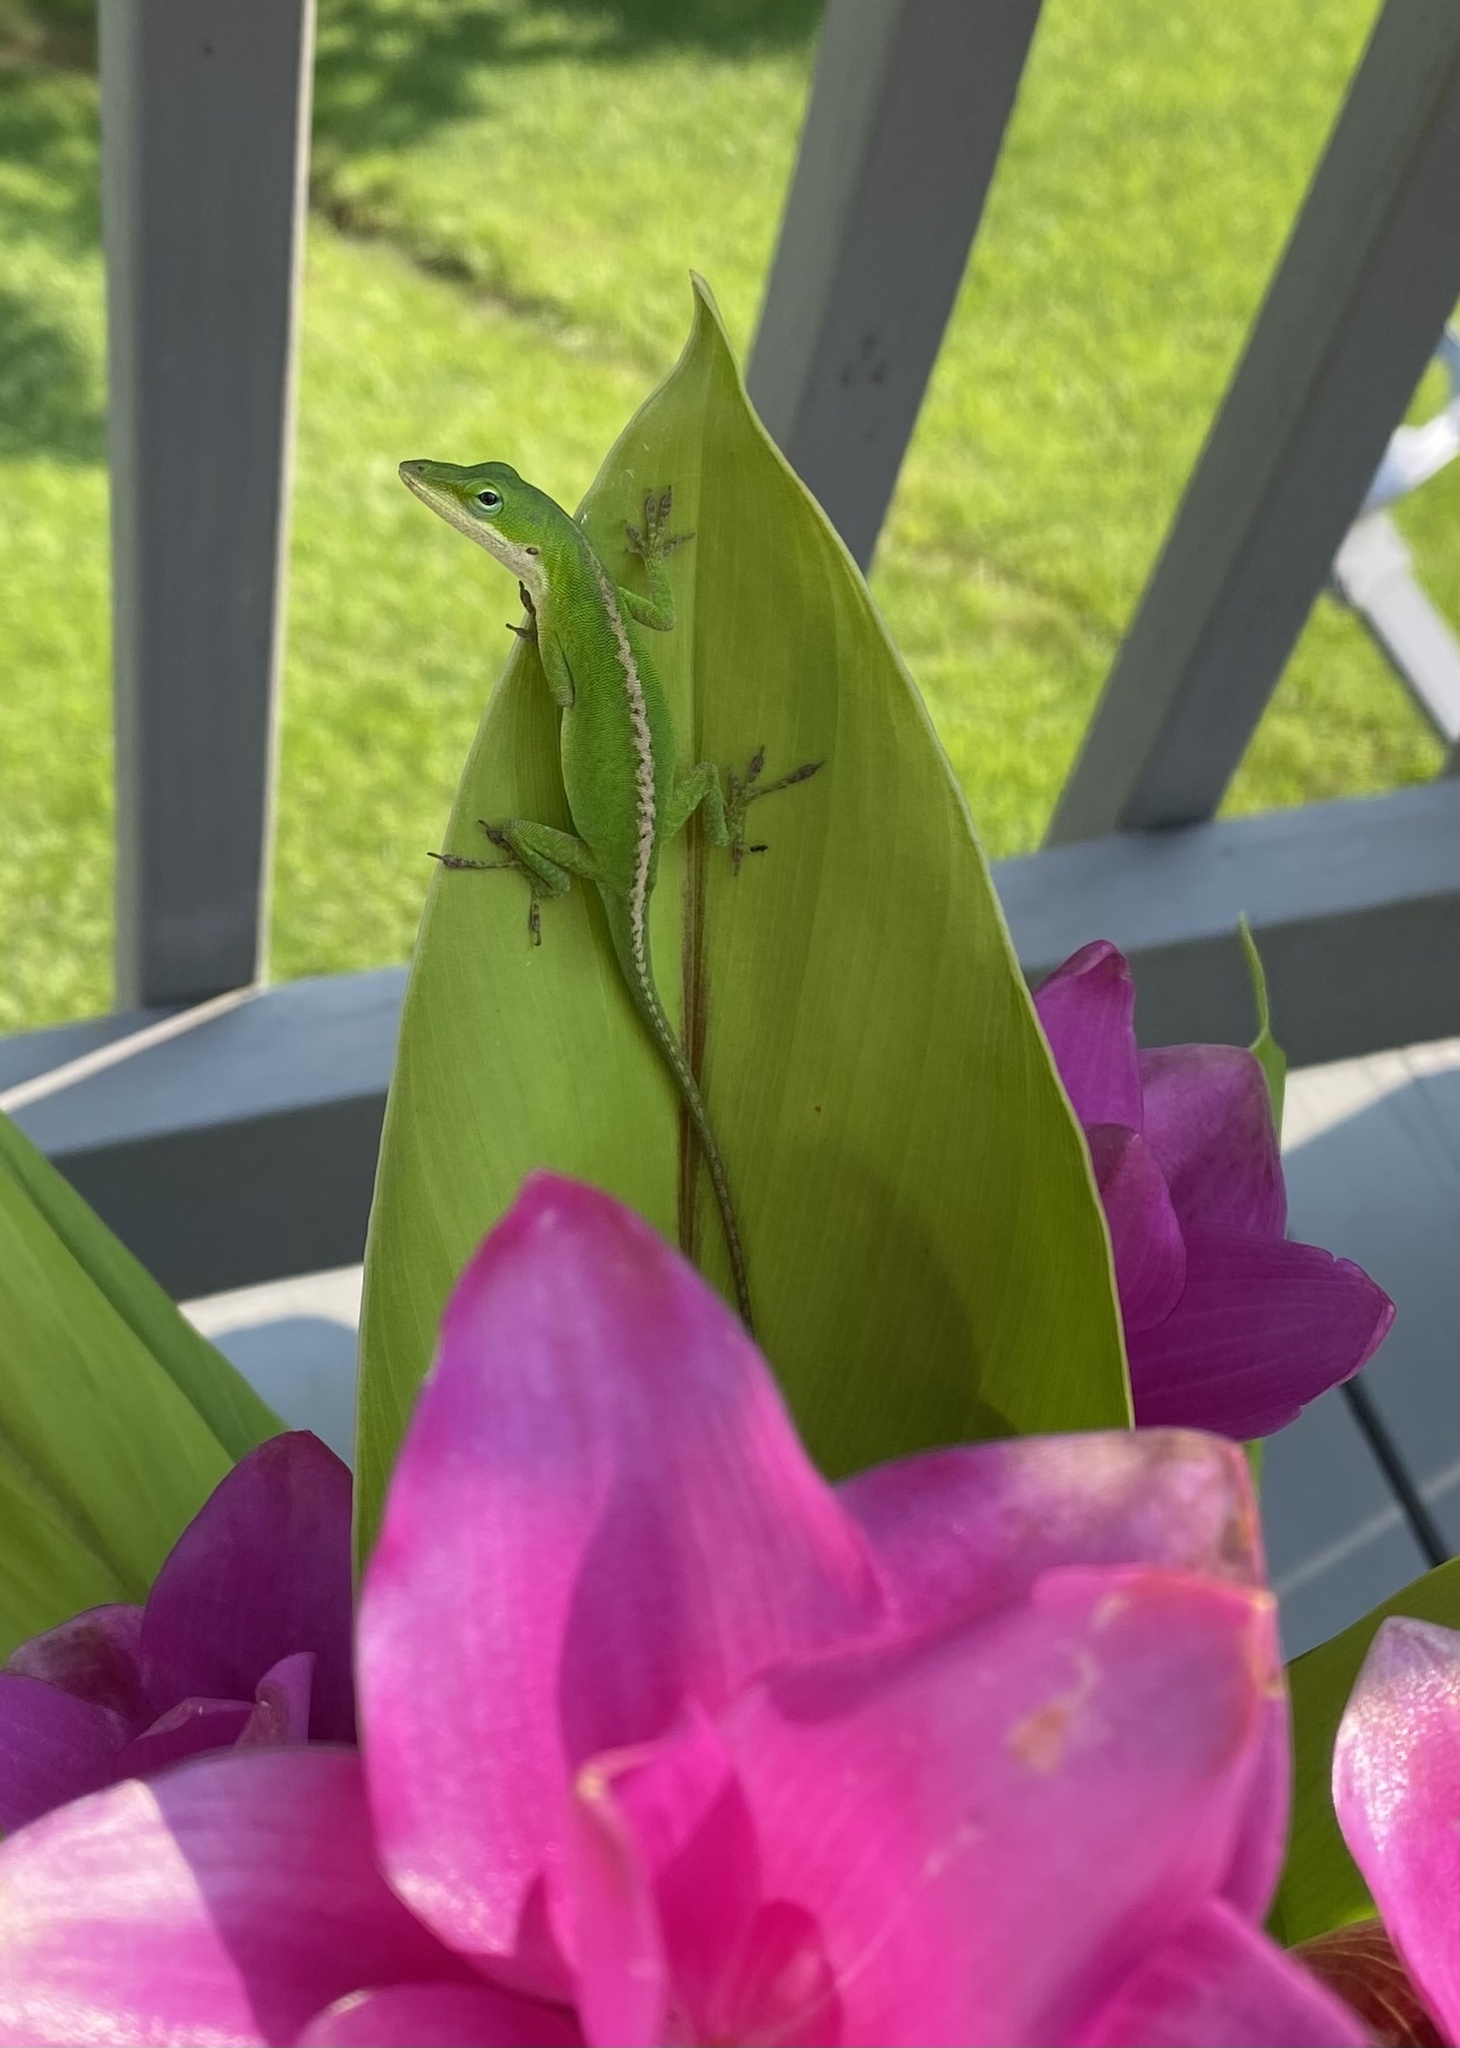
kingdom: Animalia
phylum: Chordata
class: Squamata
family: Dactyloidae
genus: Anolis
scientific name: Anolis carolinensis
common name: Green anole
